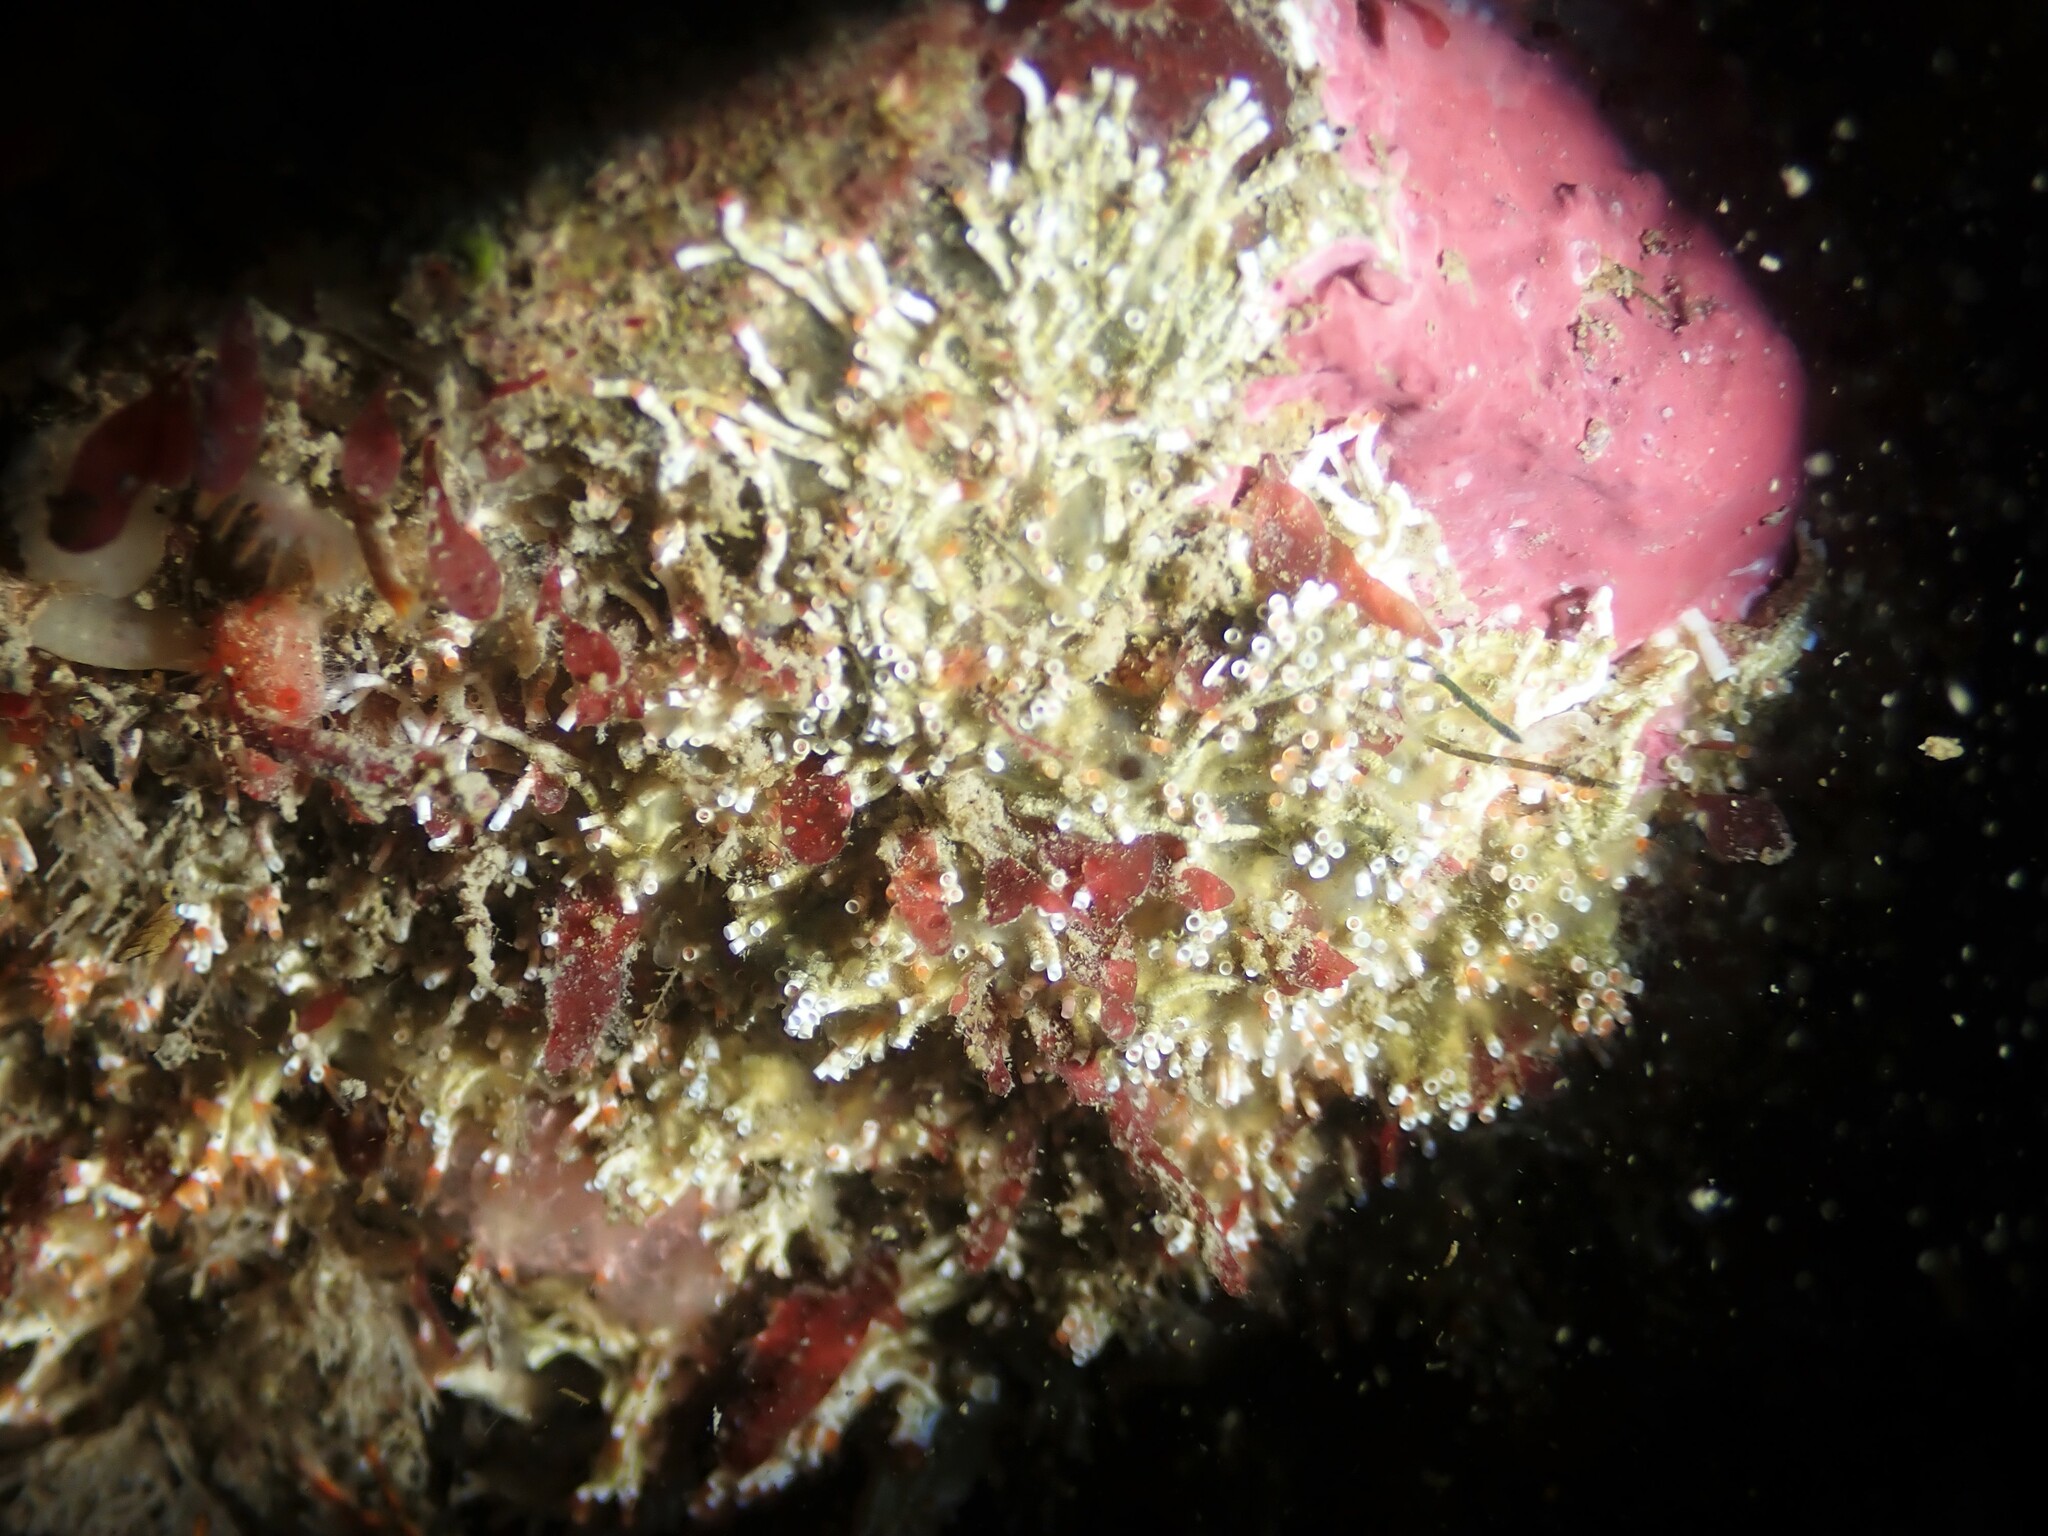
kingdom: Animalia
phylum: Annelida
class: Polychaeta
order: Sabellida
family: Serpulidae
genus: Salmacina
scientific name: Salmacina australis
